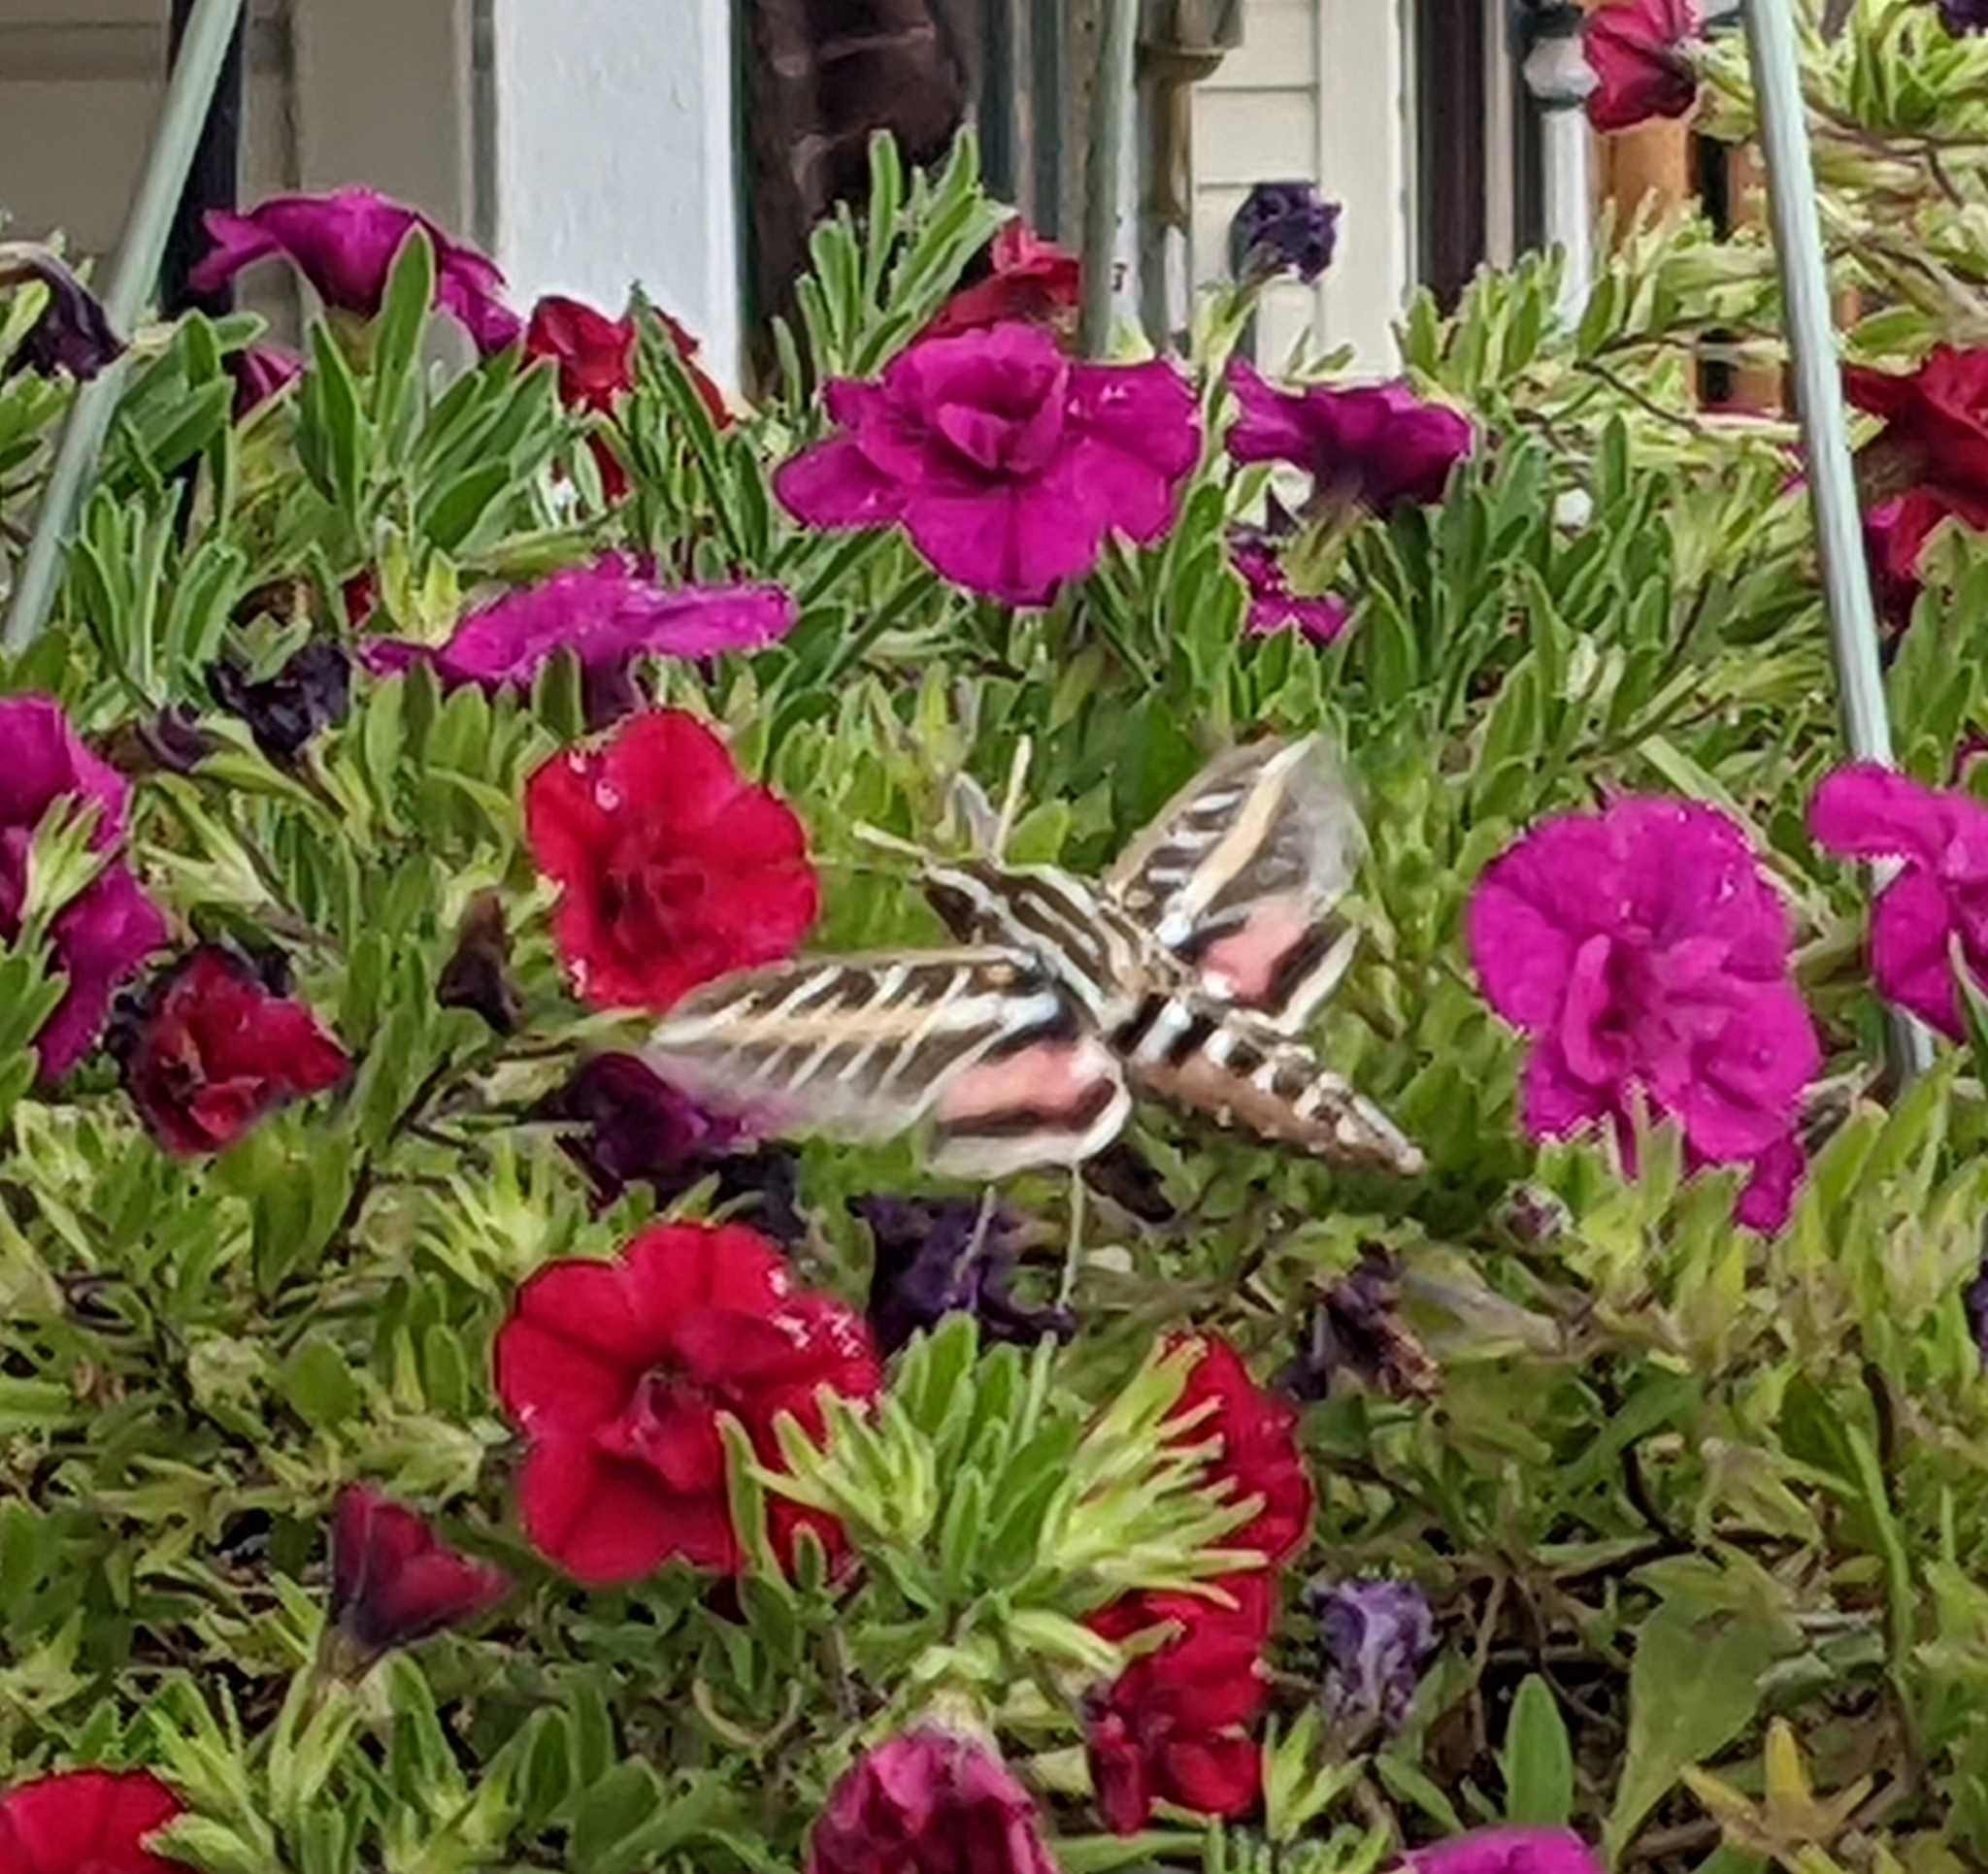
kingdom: Animalia
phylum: Arthropoda
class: Insecta
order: Lepidoptera
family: Sphingidae
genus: Hyles
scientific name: Hyles lineata
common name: White-lined sphinx
